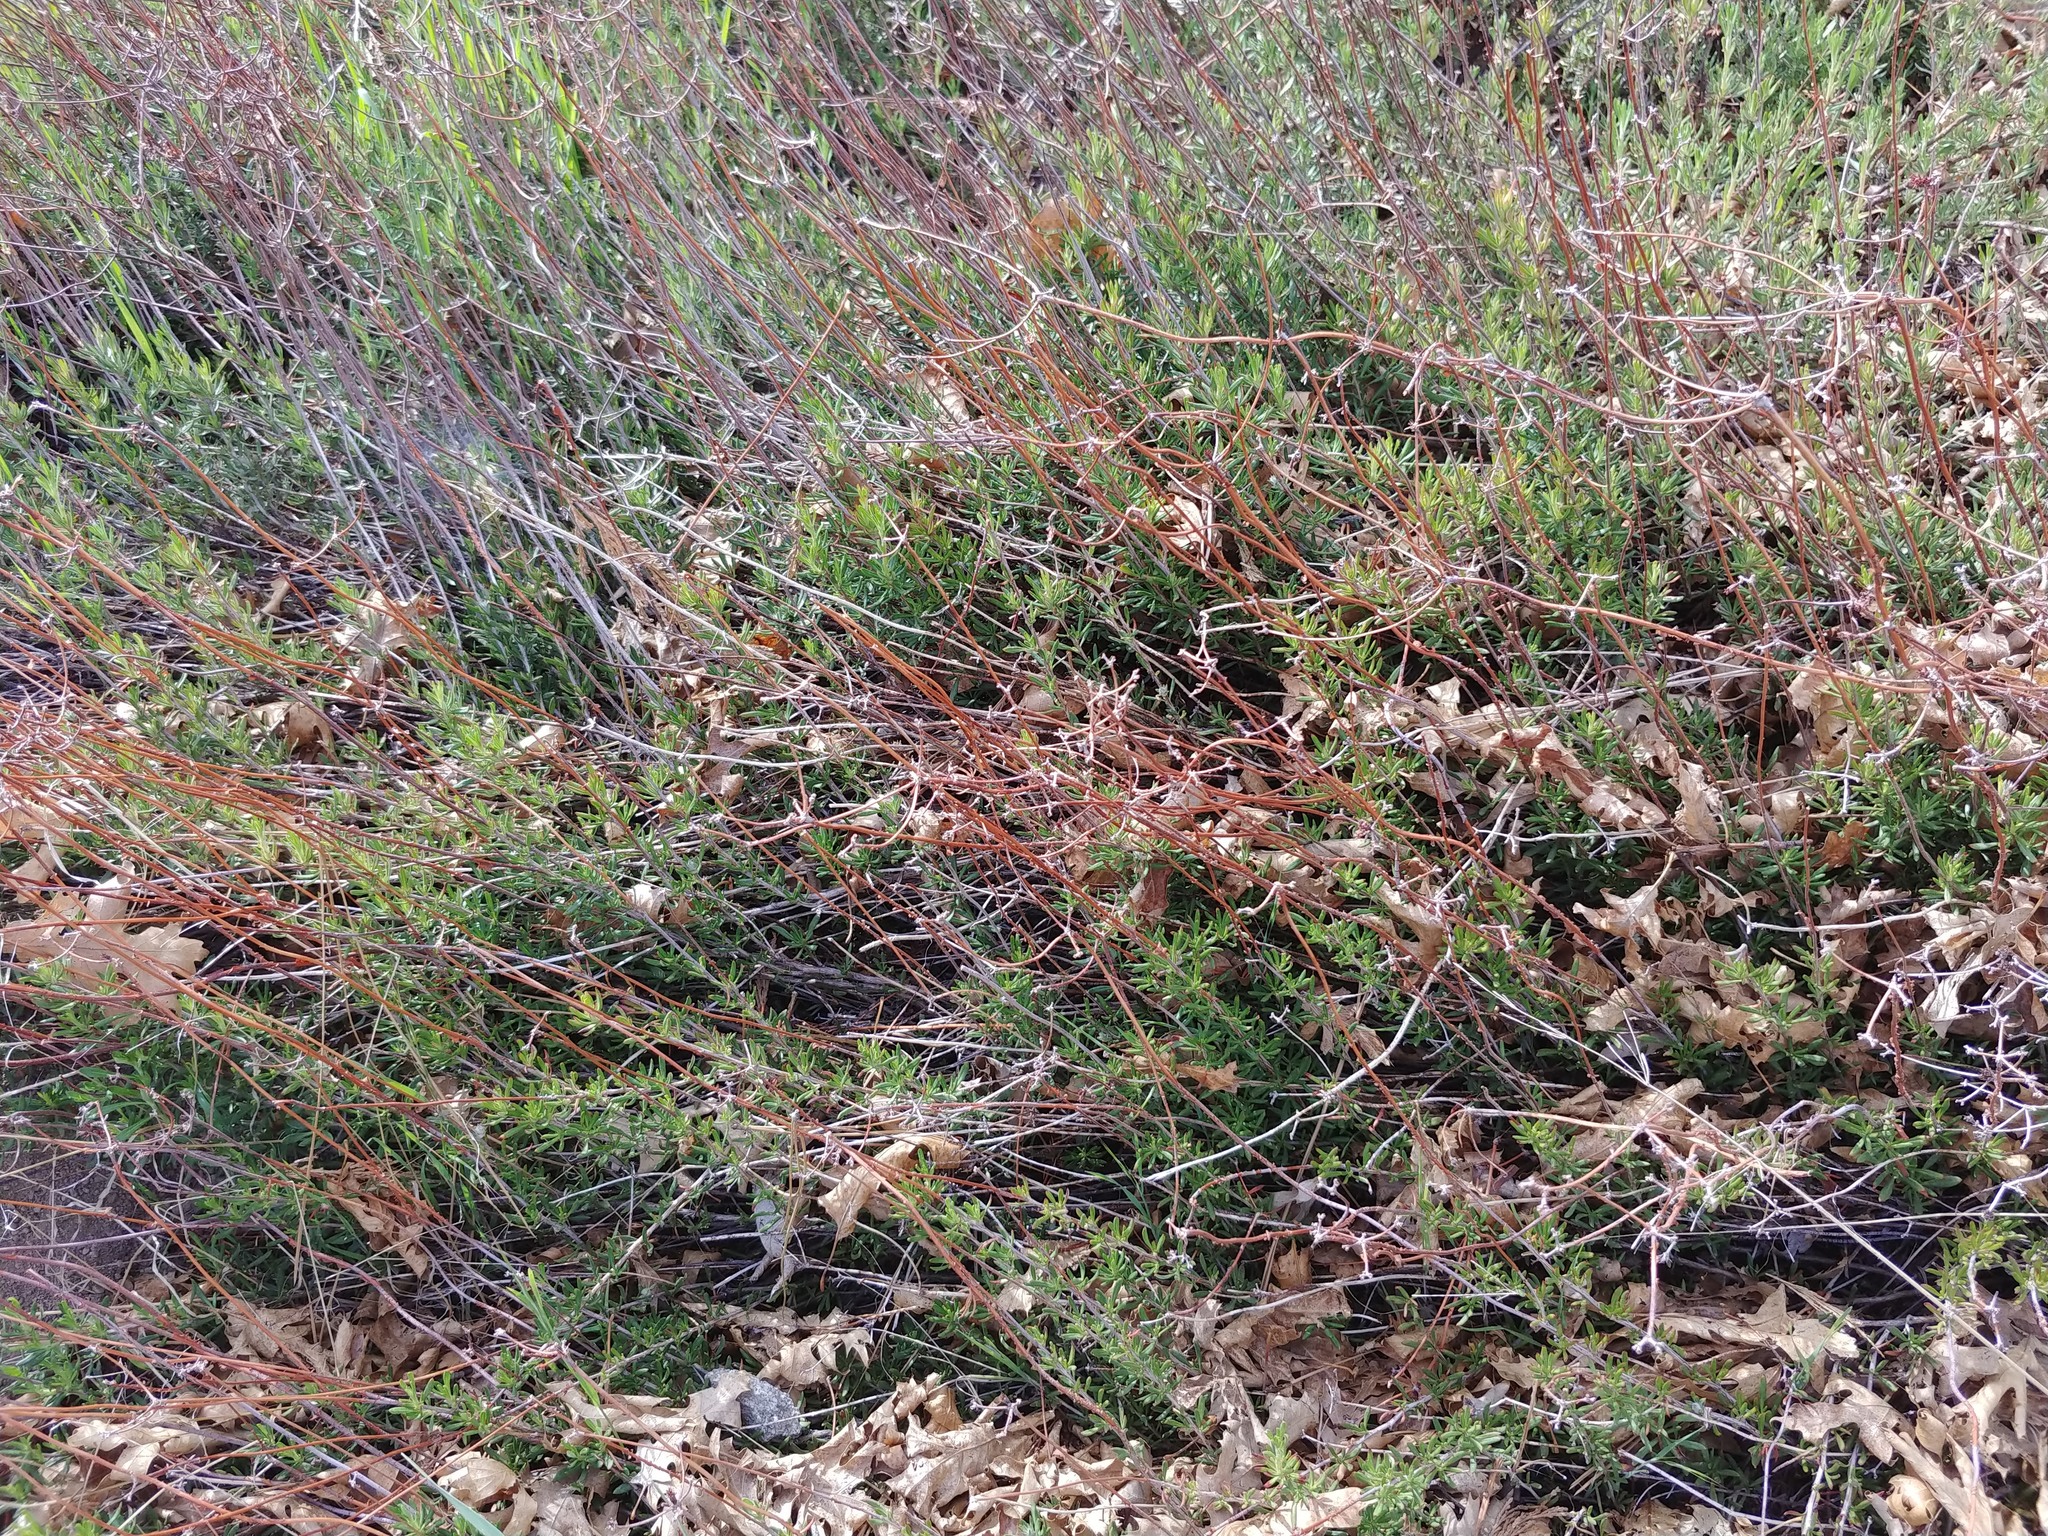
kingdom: Plantae
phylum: Tracheophyta
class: Magnoliopsida
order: Caryophyllales
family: Polygonaceae
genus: Eriogonum
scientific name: Eriogonum fasciculatum
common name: California wild buckwheat
